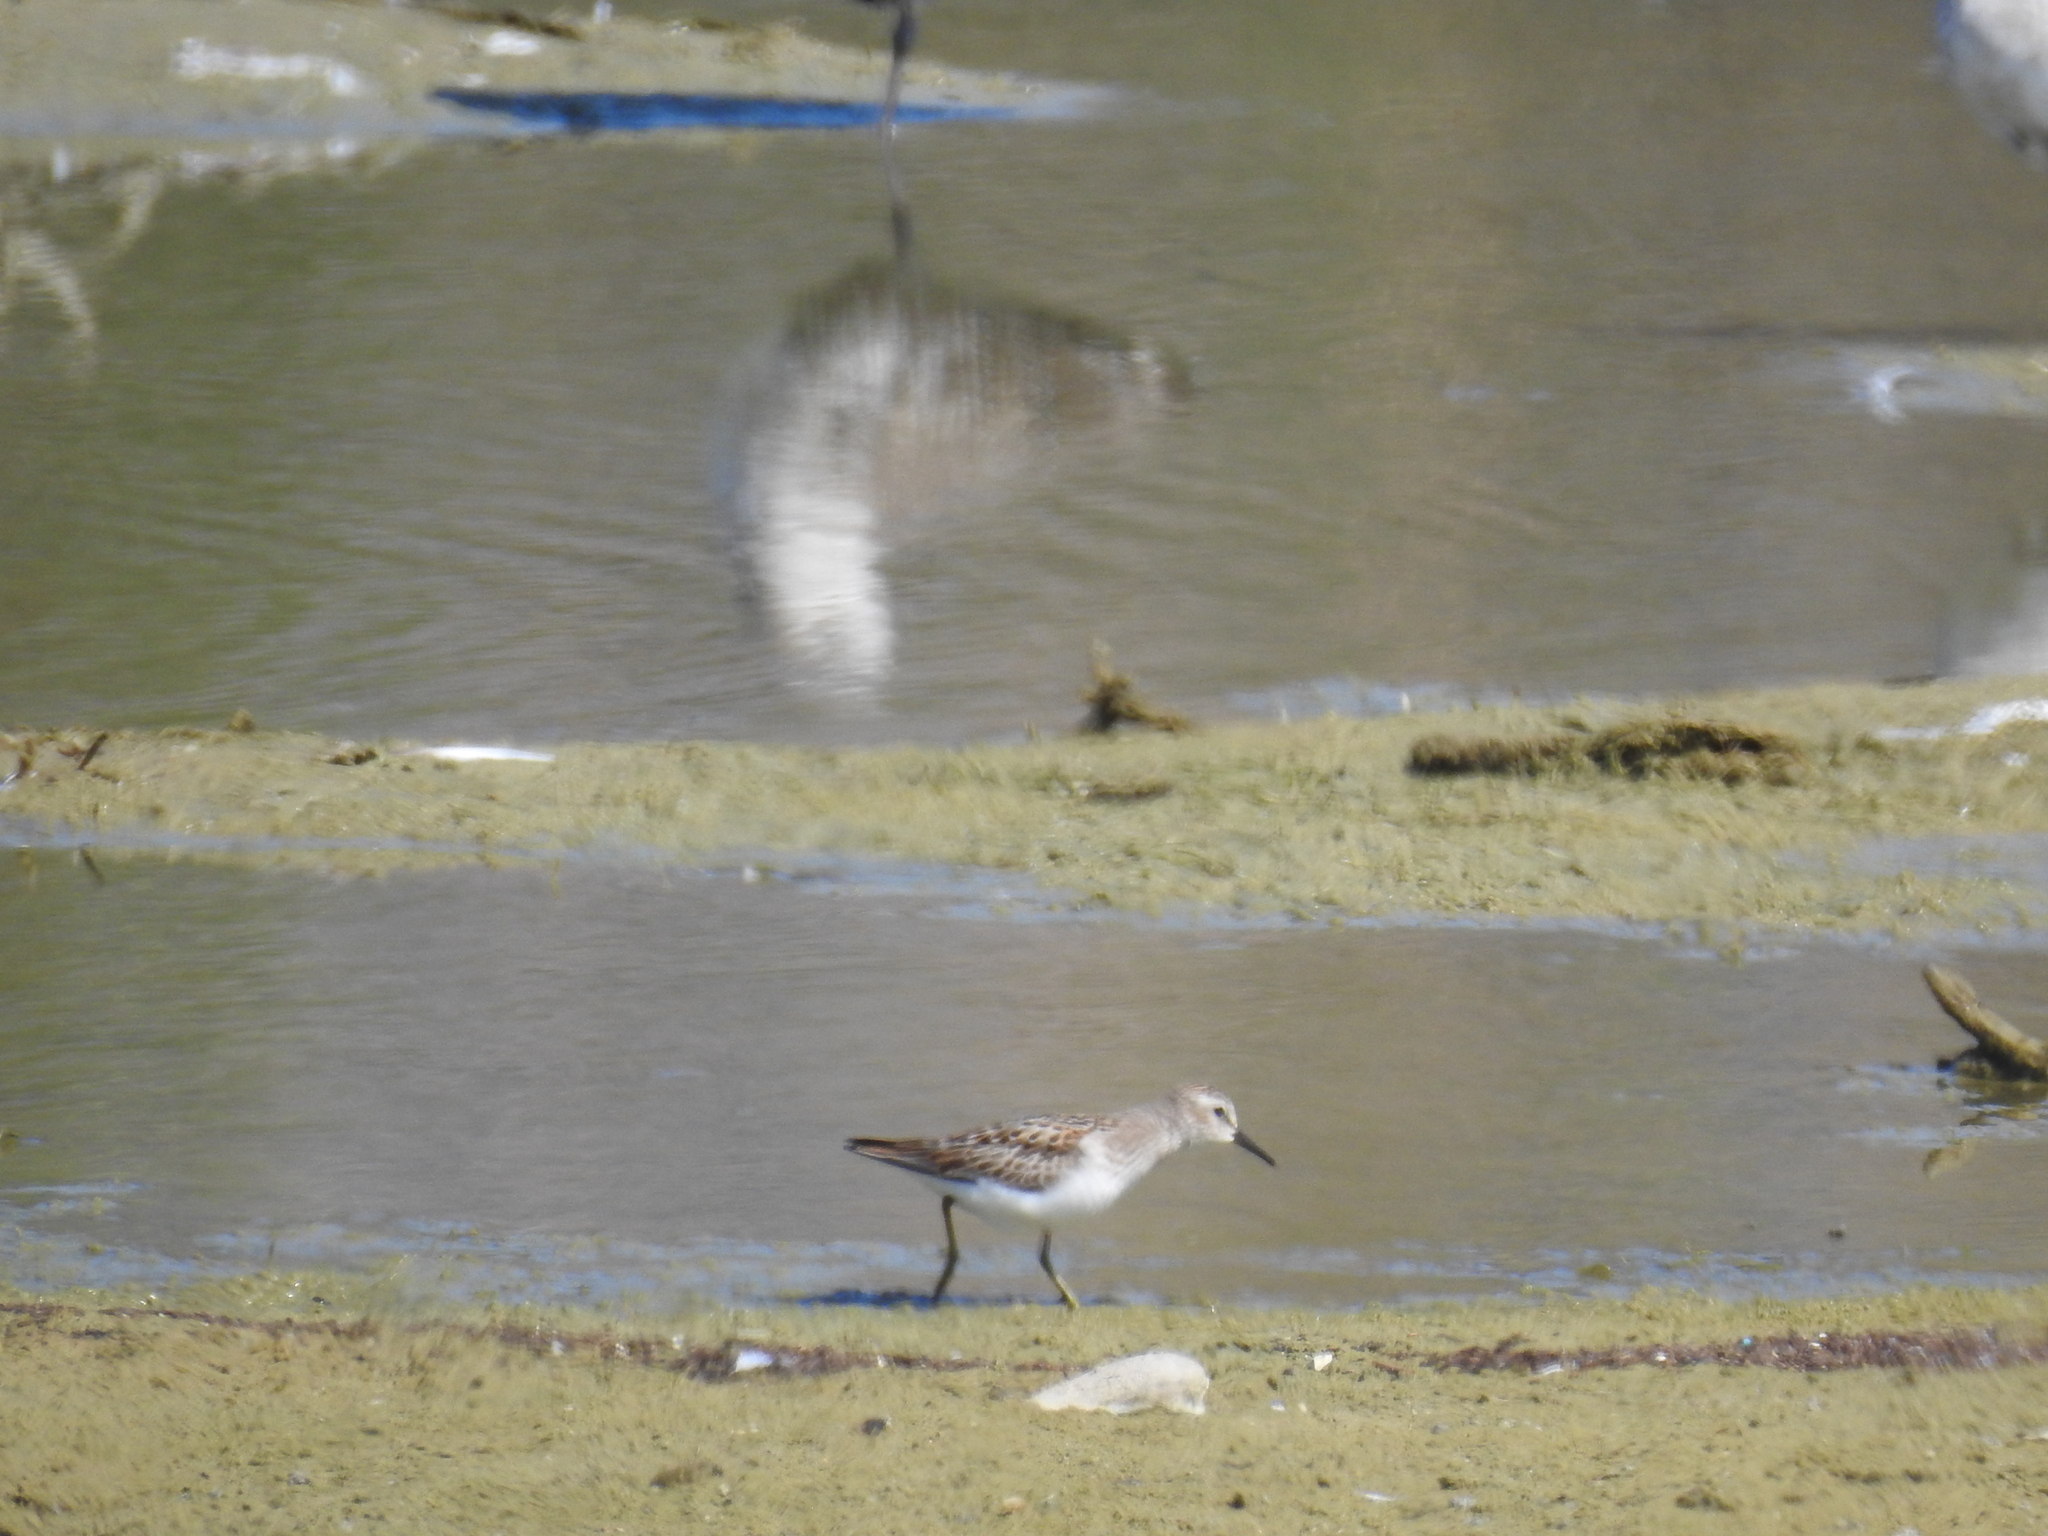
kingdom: Animalia
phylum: Chordata
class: Aves
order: Charadriiformes
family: Scolopacidae
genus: Calidris
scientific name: Calidris minutilla
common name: Least sandpiper
